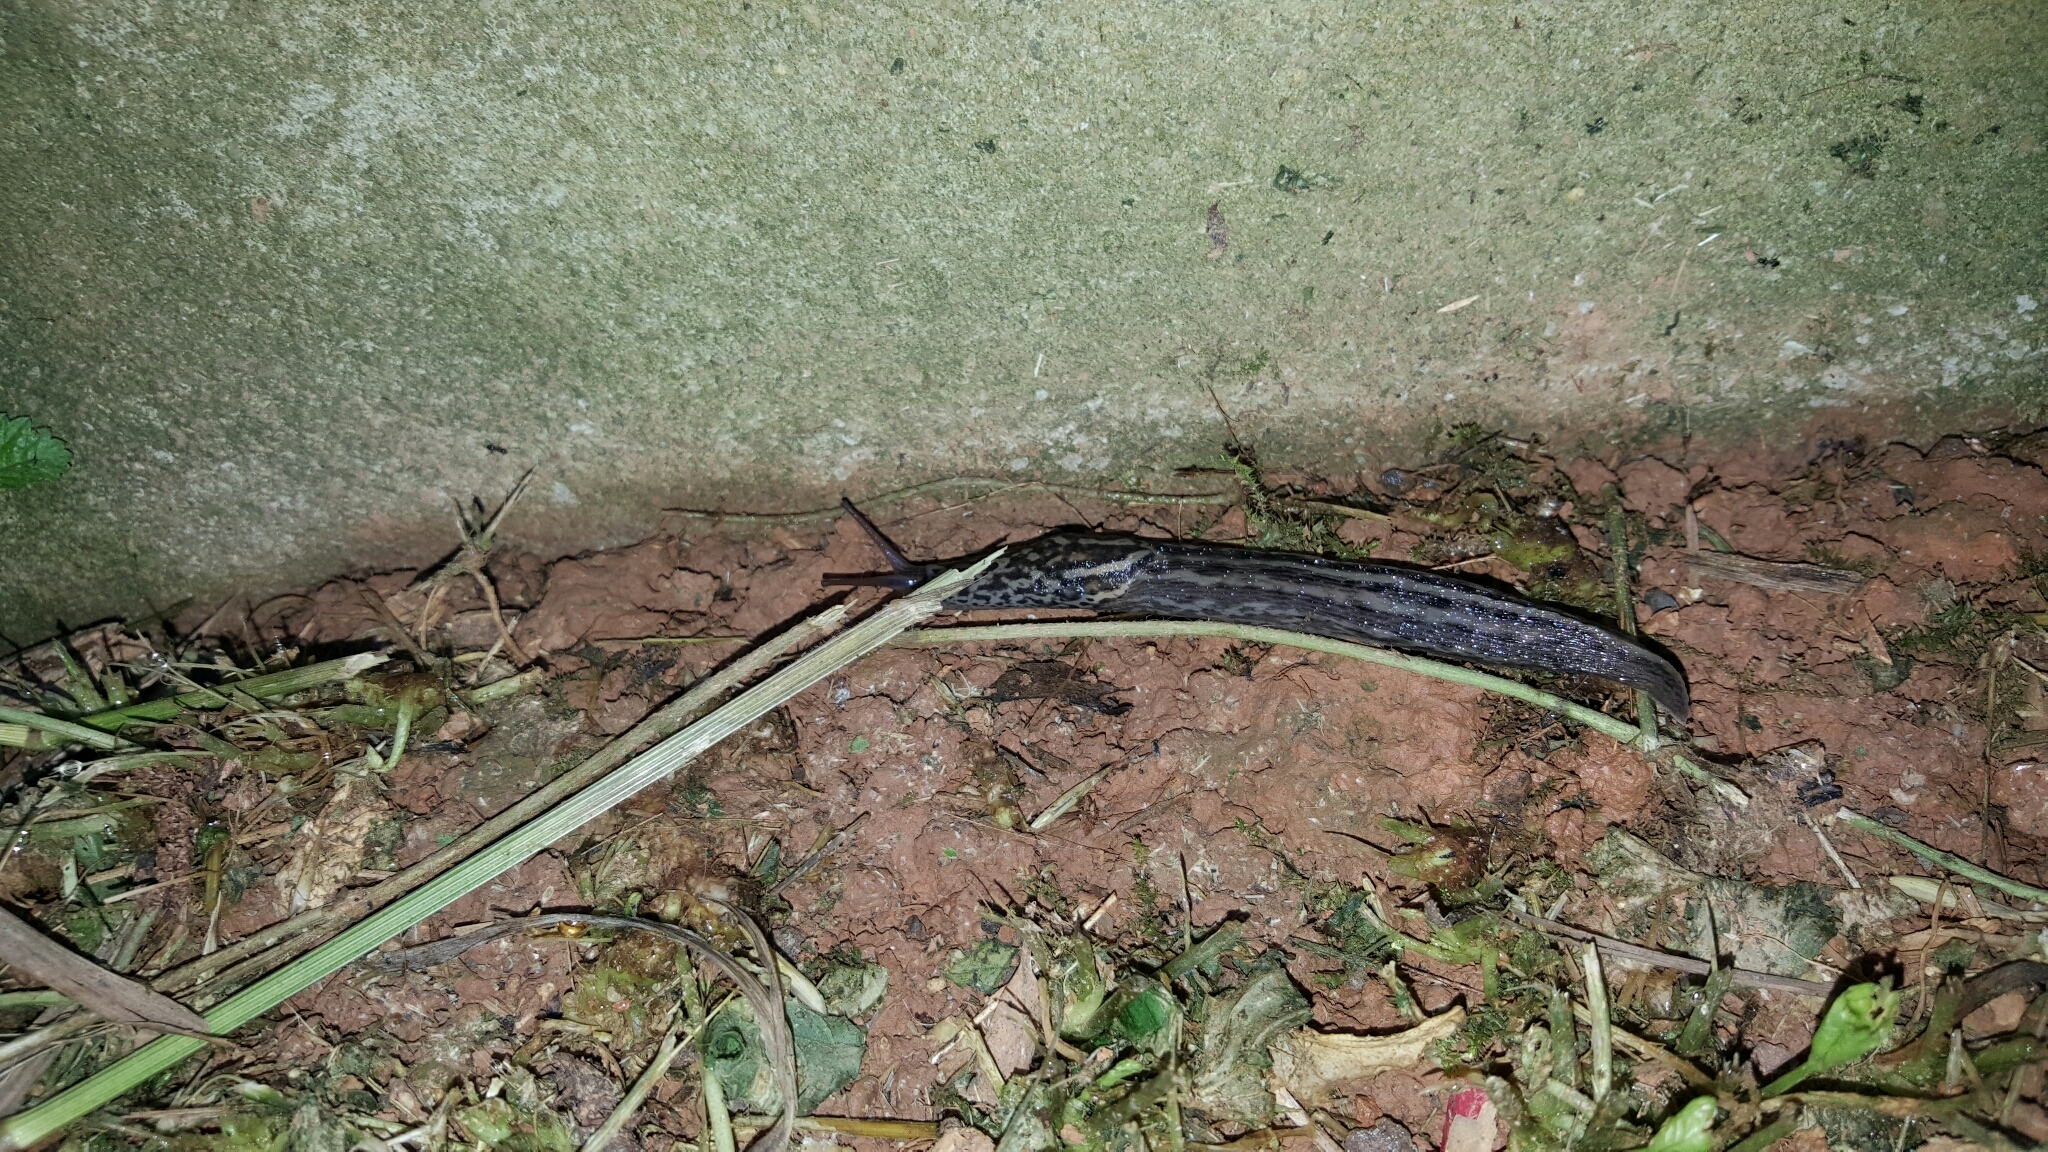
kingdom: Animalia
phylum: Mollusca
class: Gastropoda
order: Stylommatophora
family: Limacidae
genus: Limax
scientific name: Limax maximus
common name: Great grey slug
